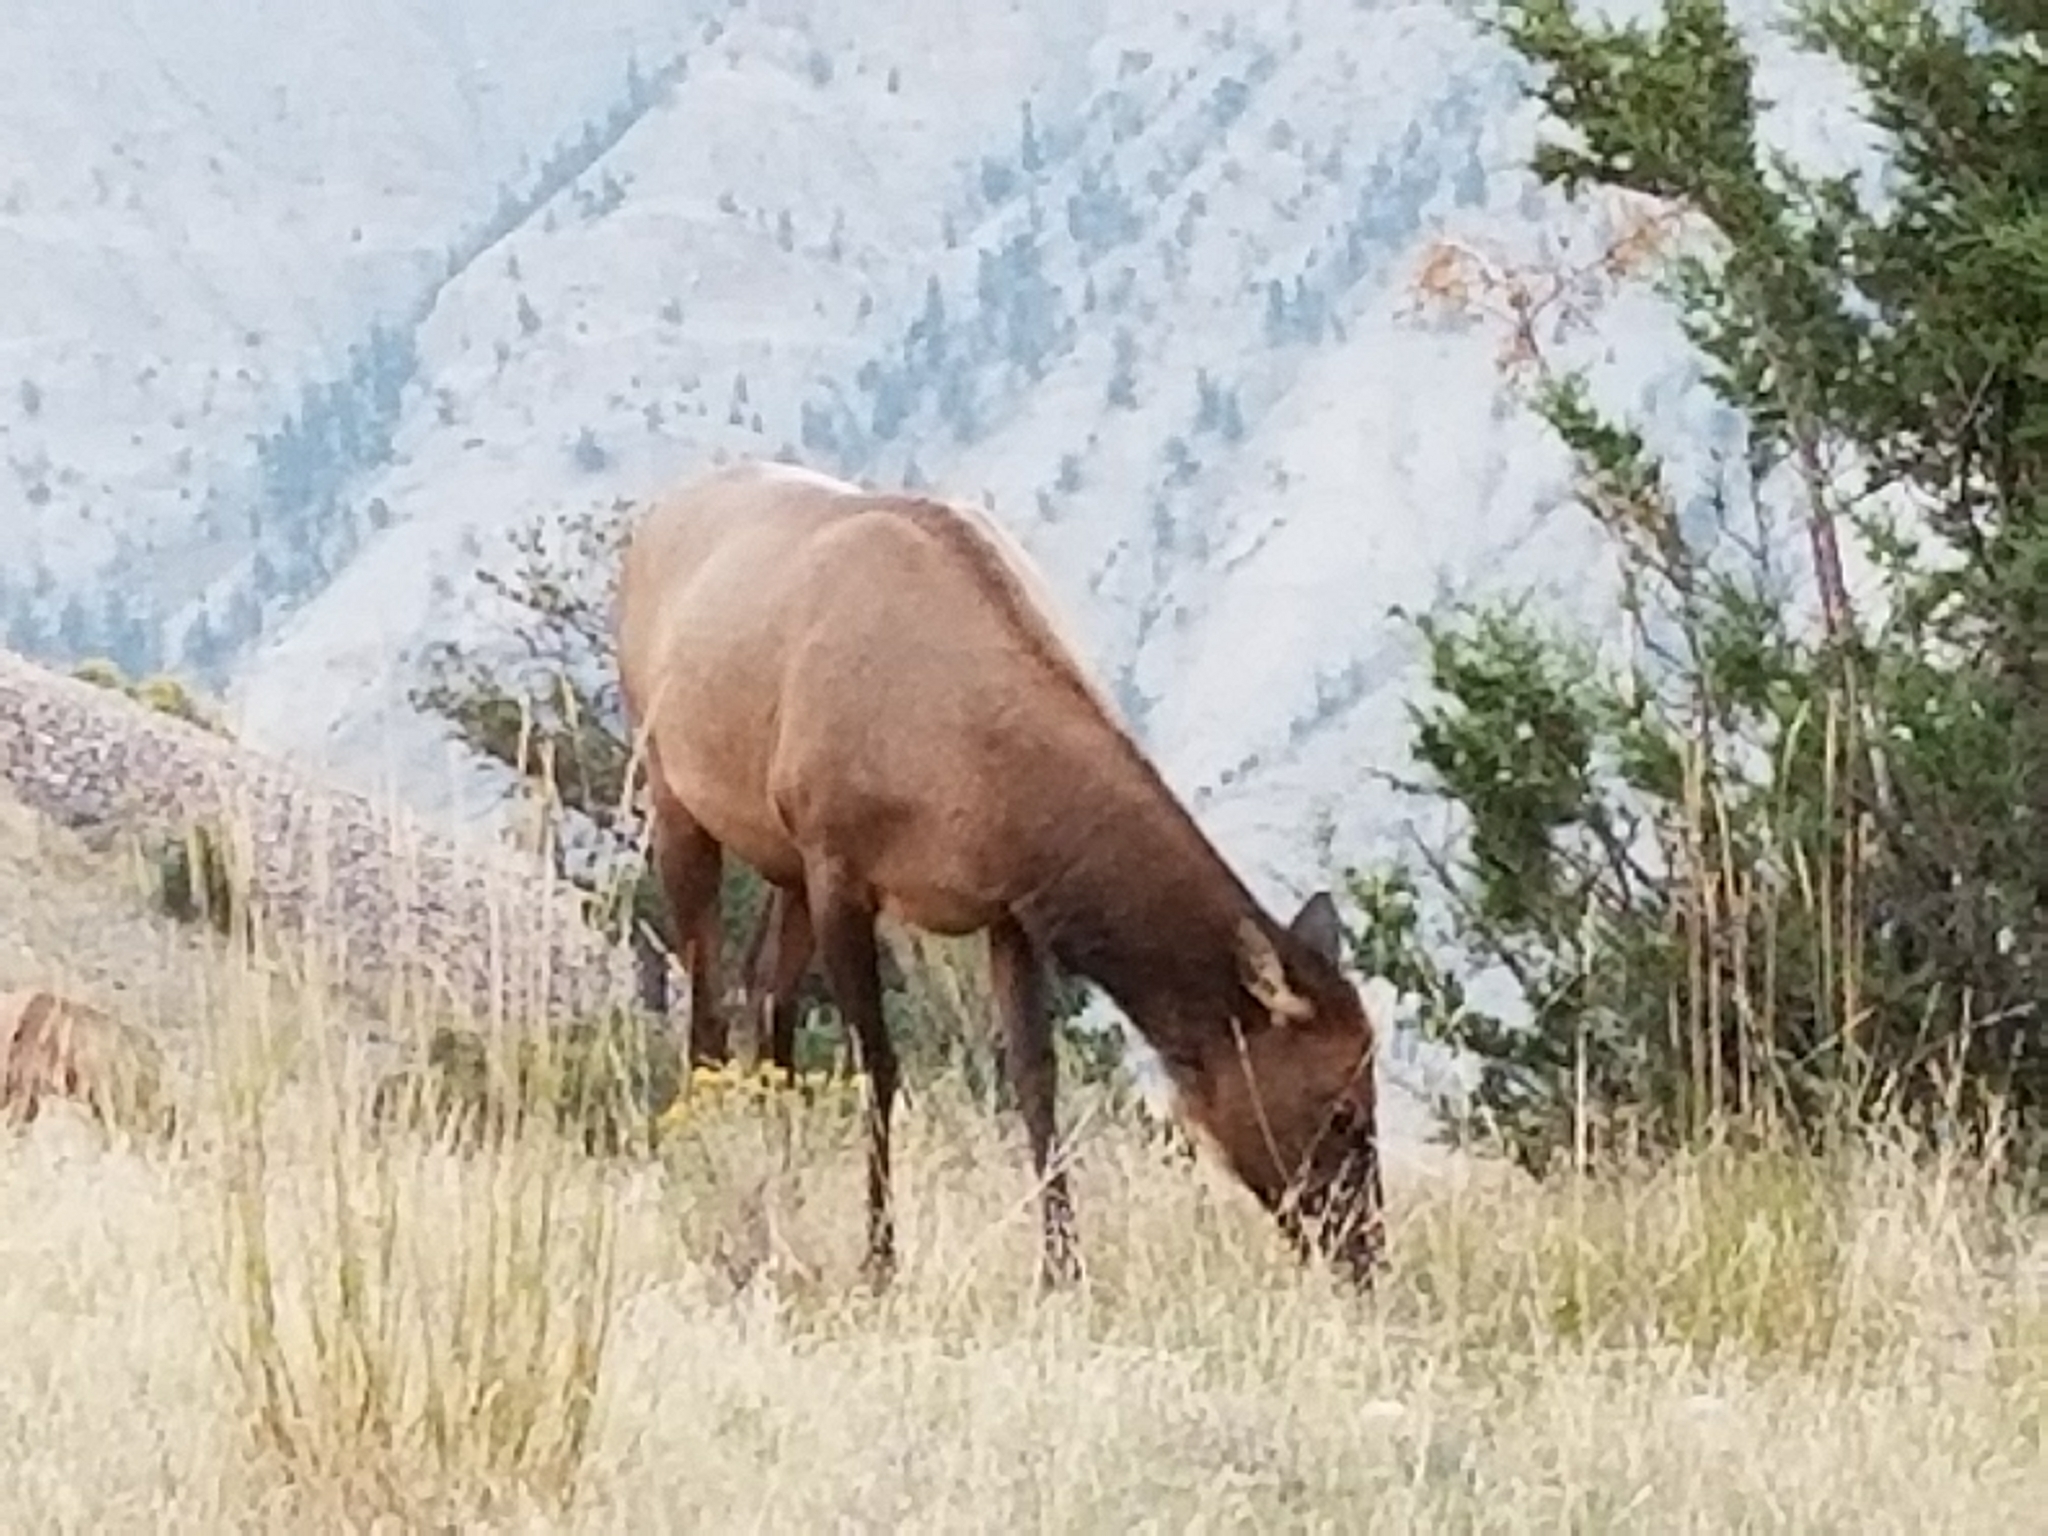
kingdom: Animalia
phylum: Chordata
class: Mammalia
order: Artiodactyla
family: Cervidae
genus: Cervus
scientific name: Cervus elaphus
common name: Red deer
